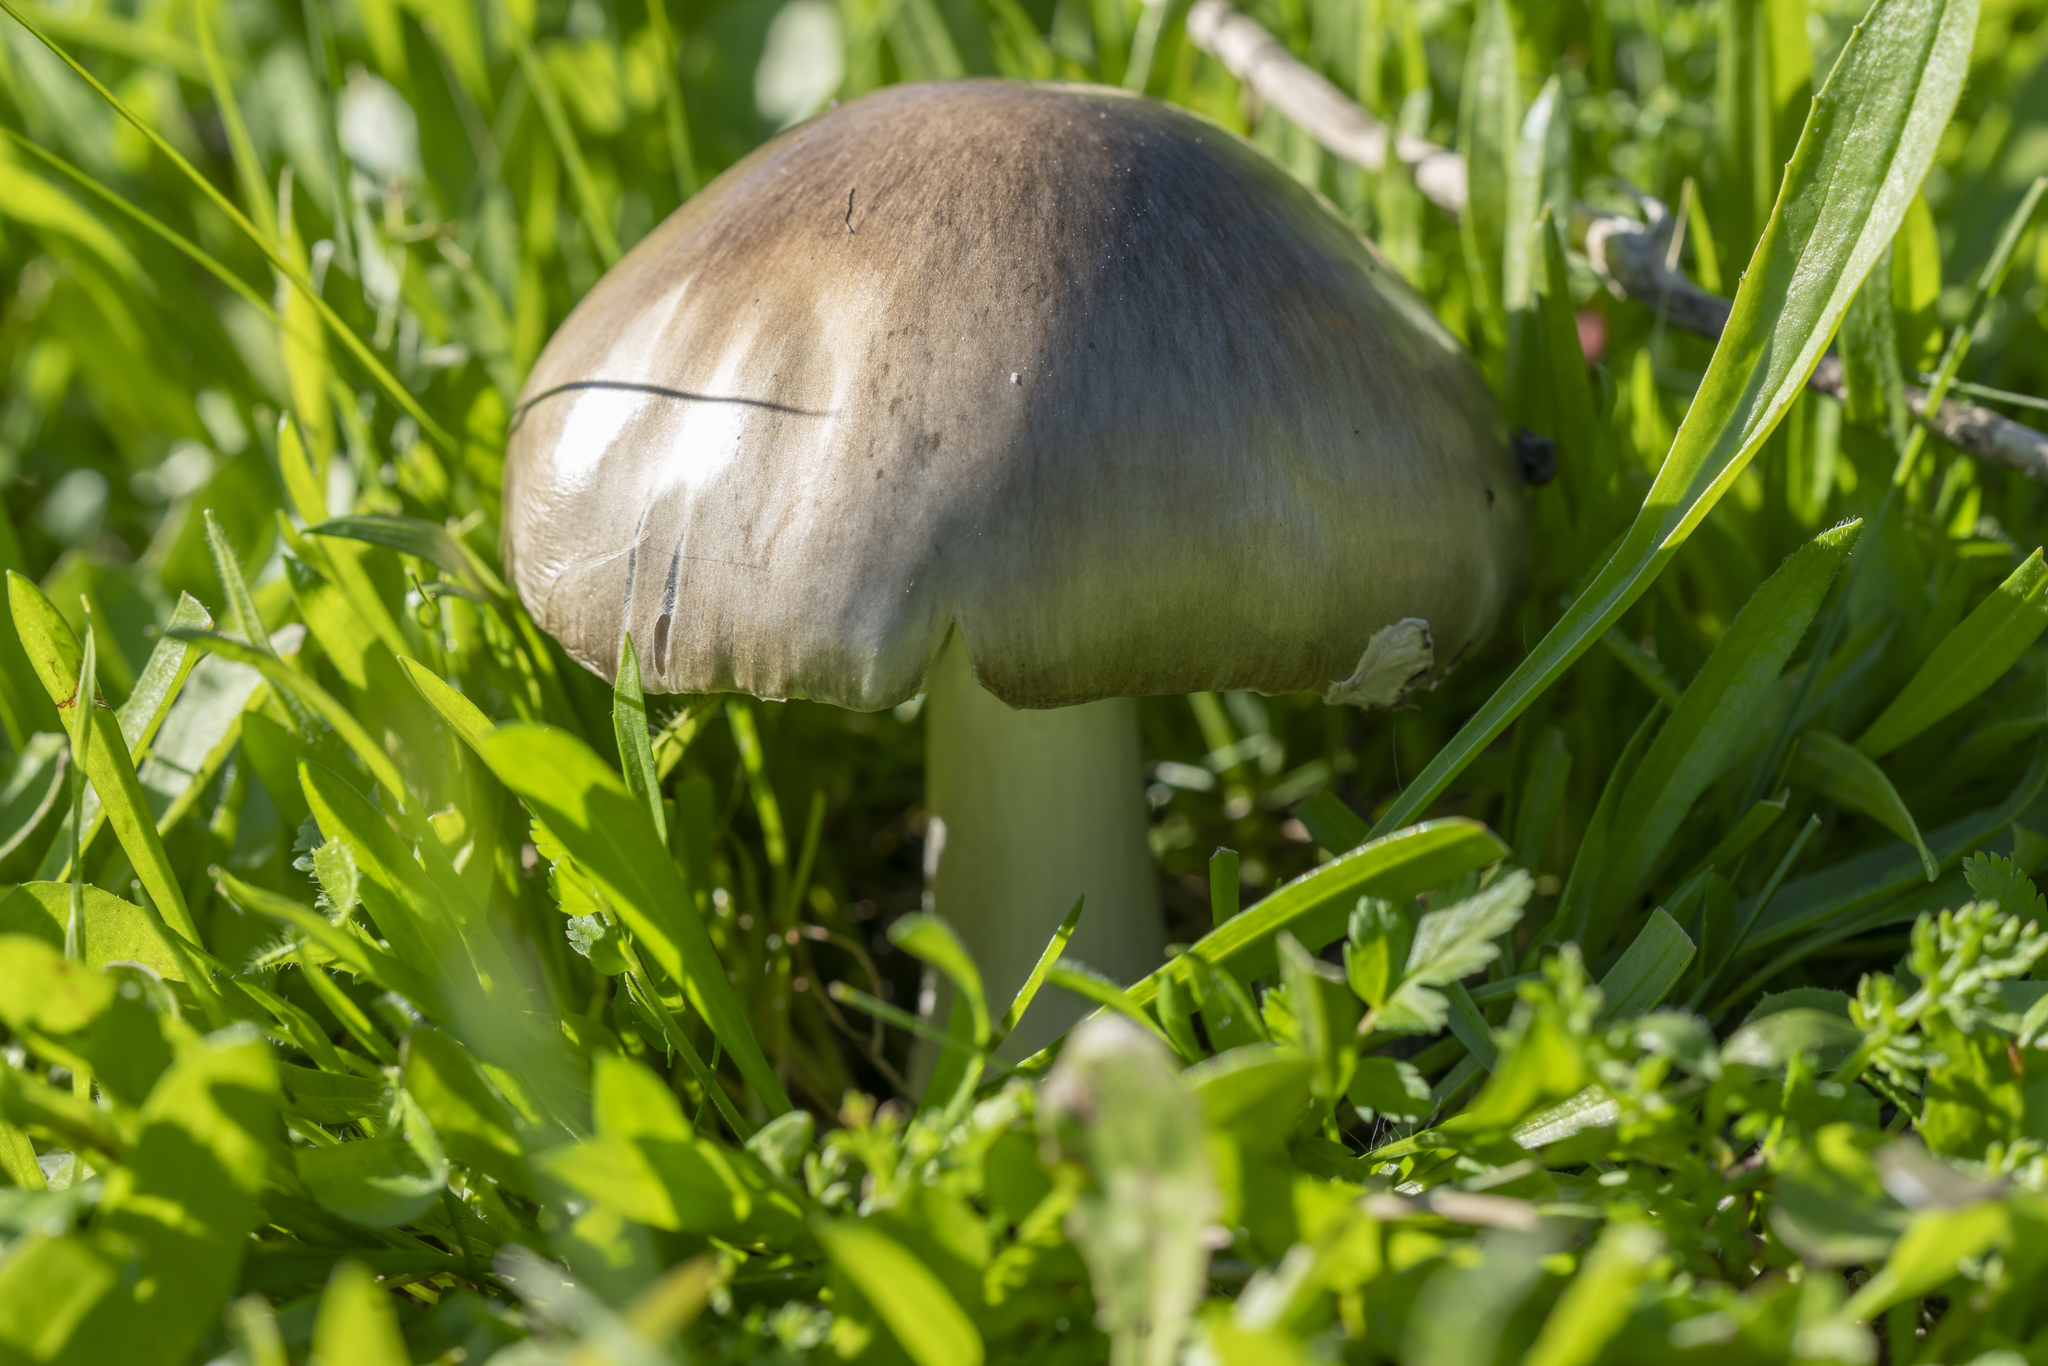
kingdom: Fungi
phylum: Basidiomycota
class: Agaricomycetes
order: Agaricales
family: Pluteaceae
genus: Volvopluteus
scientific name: Volvopluteus gloiocephalus
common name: Stubble rosegill
